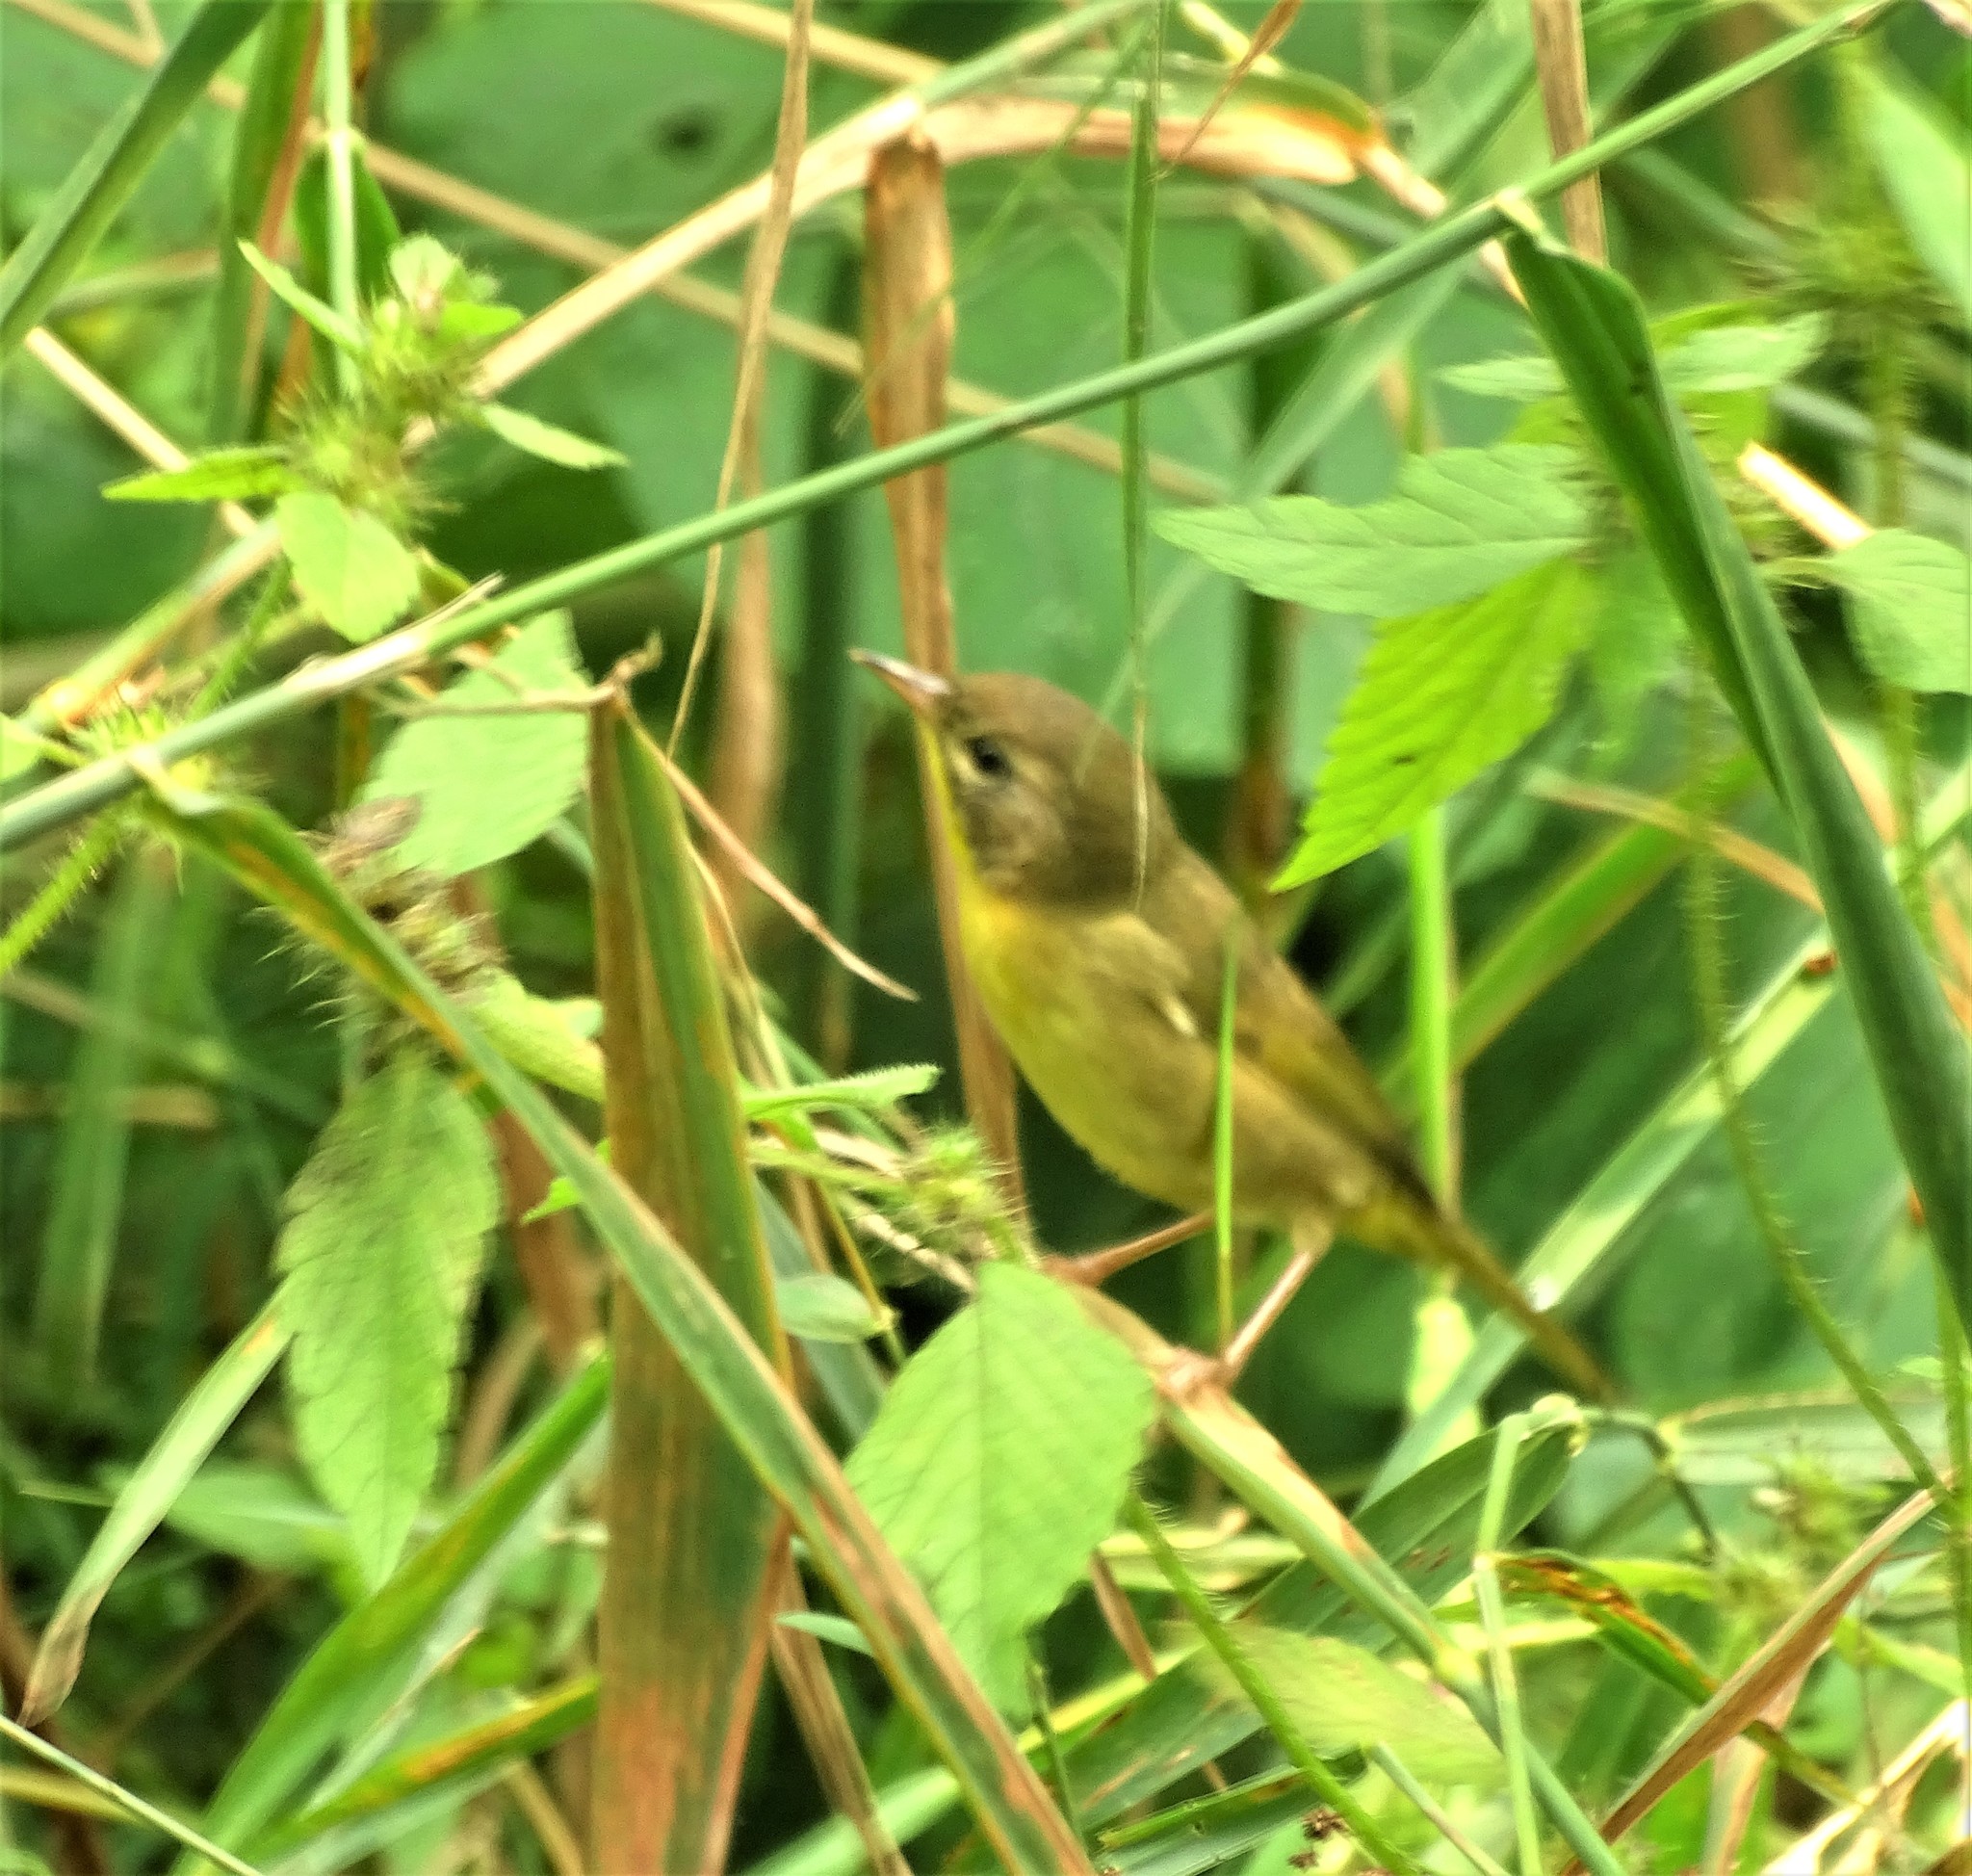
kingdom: Animalia
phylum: Chordata
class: Aves
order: Passeriformes
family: Parulidae
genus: Geothlypis
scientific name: Geothlypis trichas
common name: Common yellowthroat
